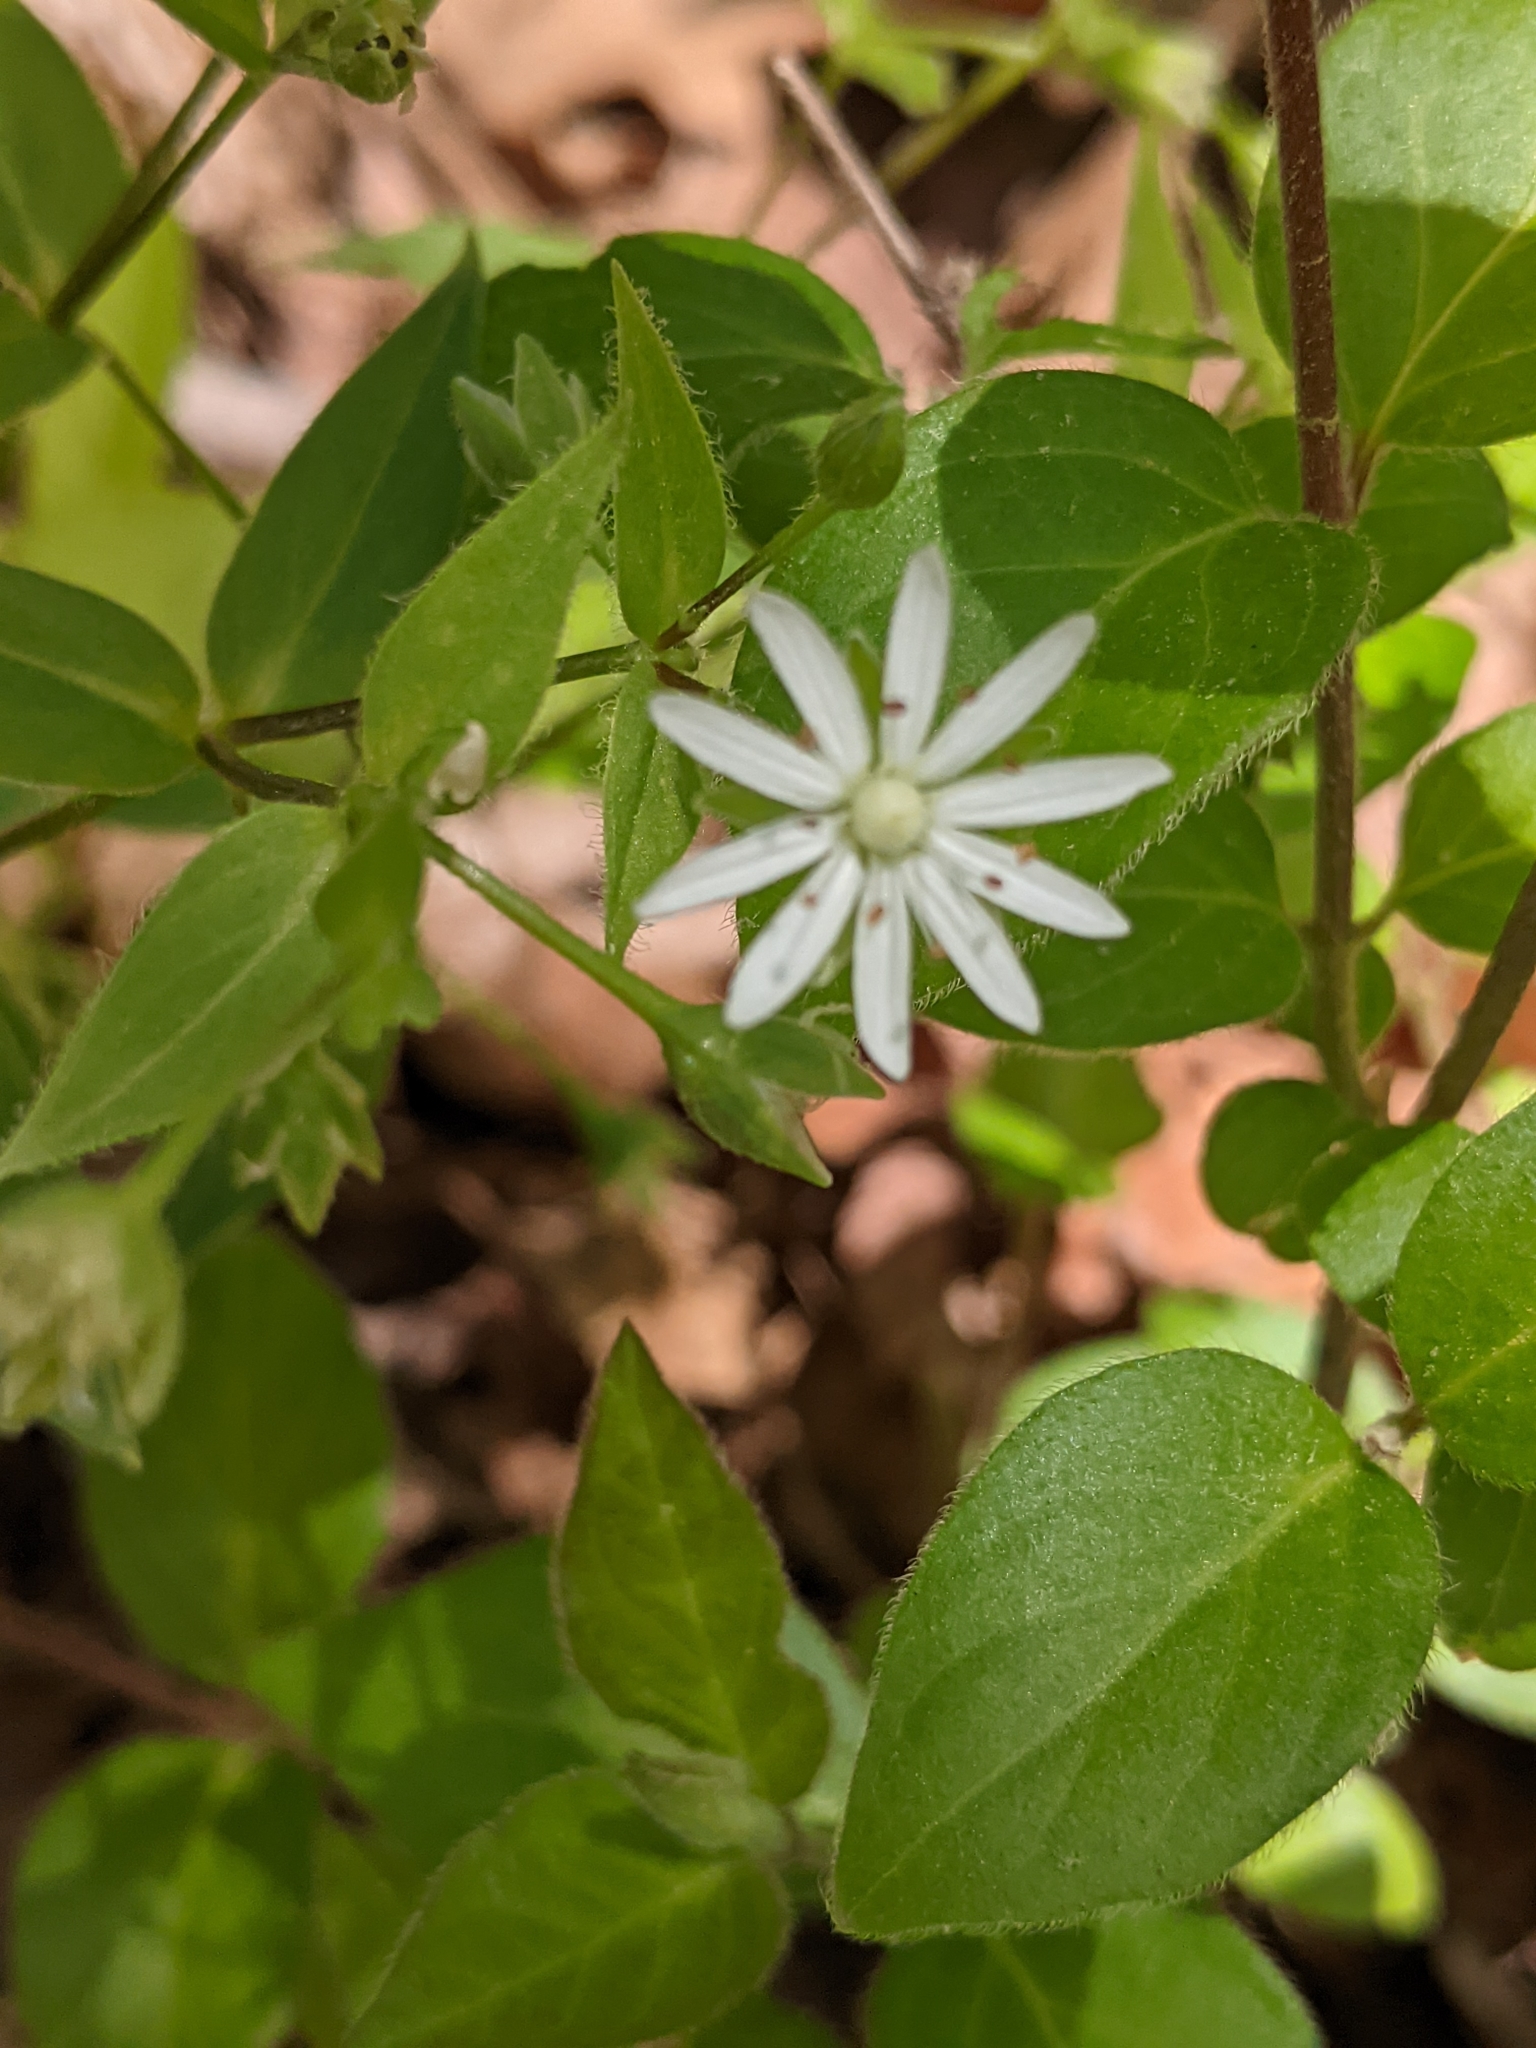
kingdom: Plantae
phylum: Tracheophyta
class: Magnoliopsida
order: Caryophyllales
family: Caryophyllaceae
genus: Stellaria
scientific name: Stellaria pubera
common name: Star chickweed
